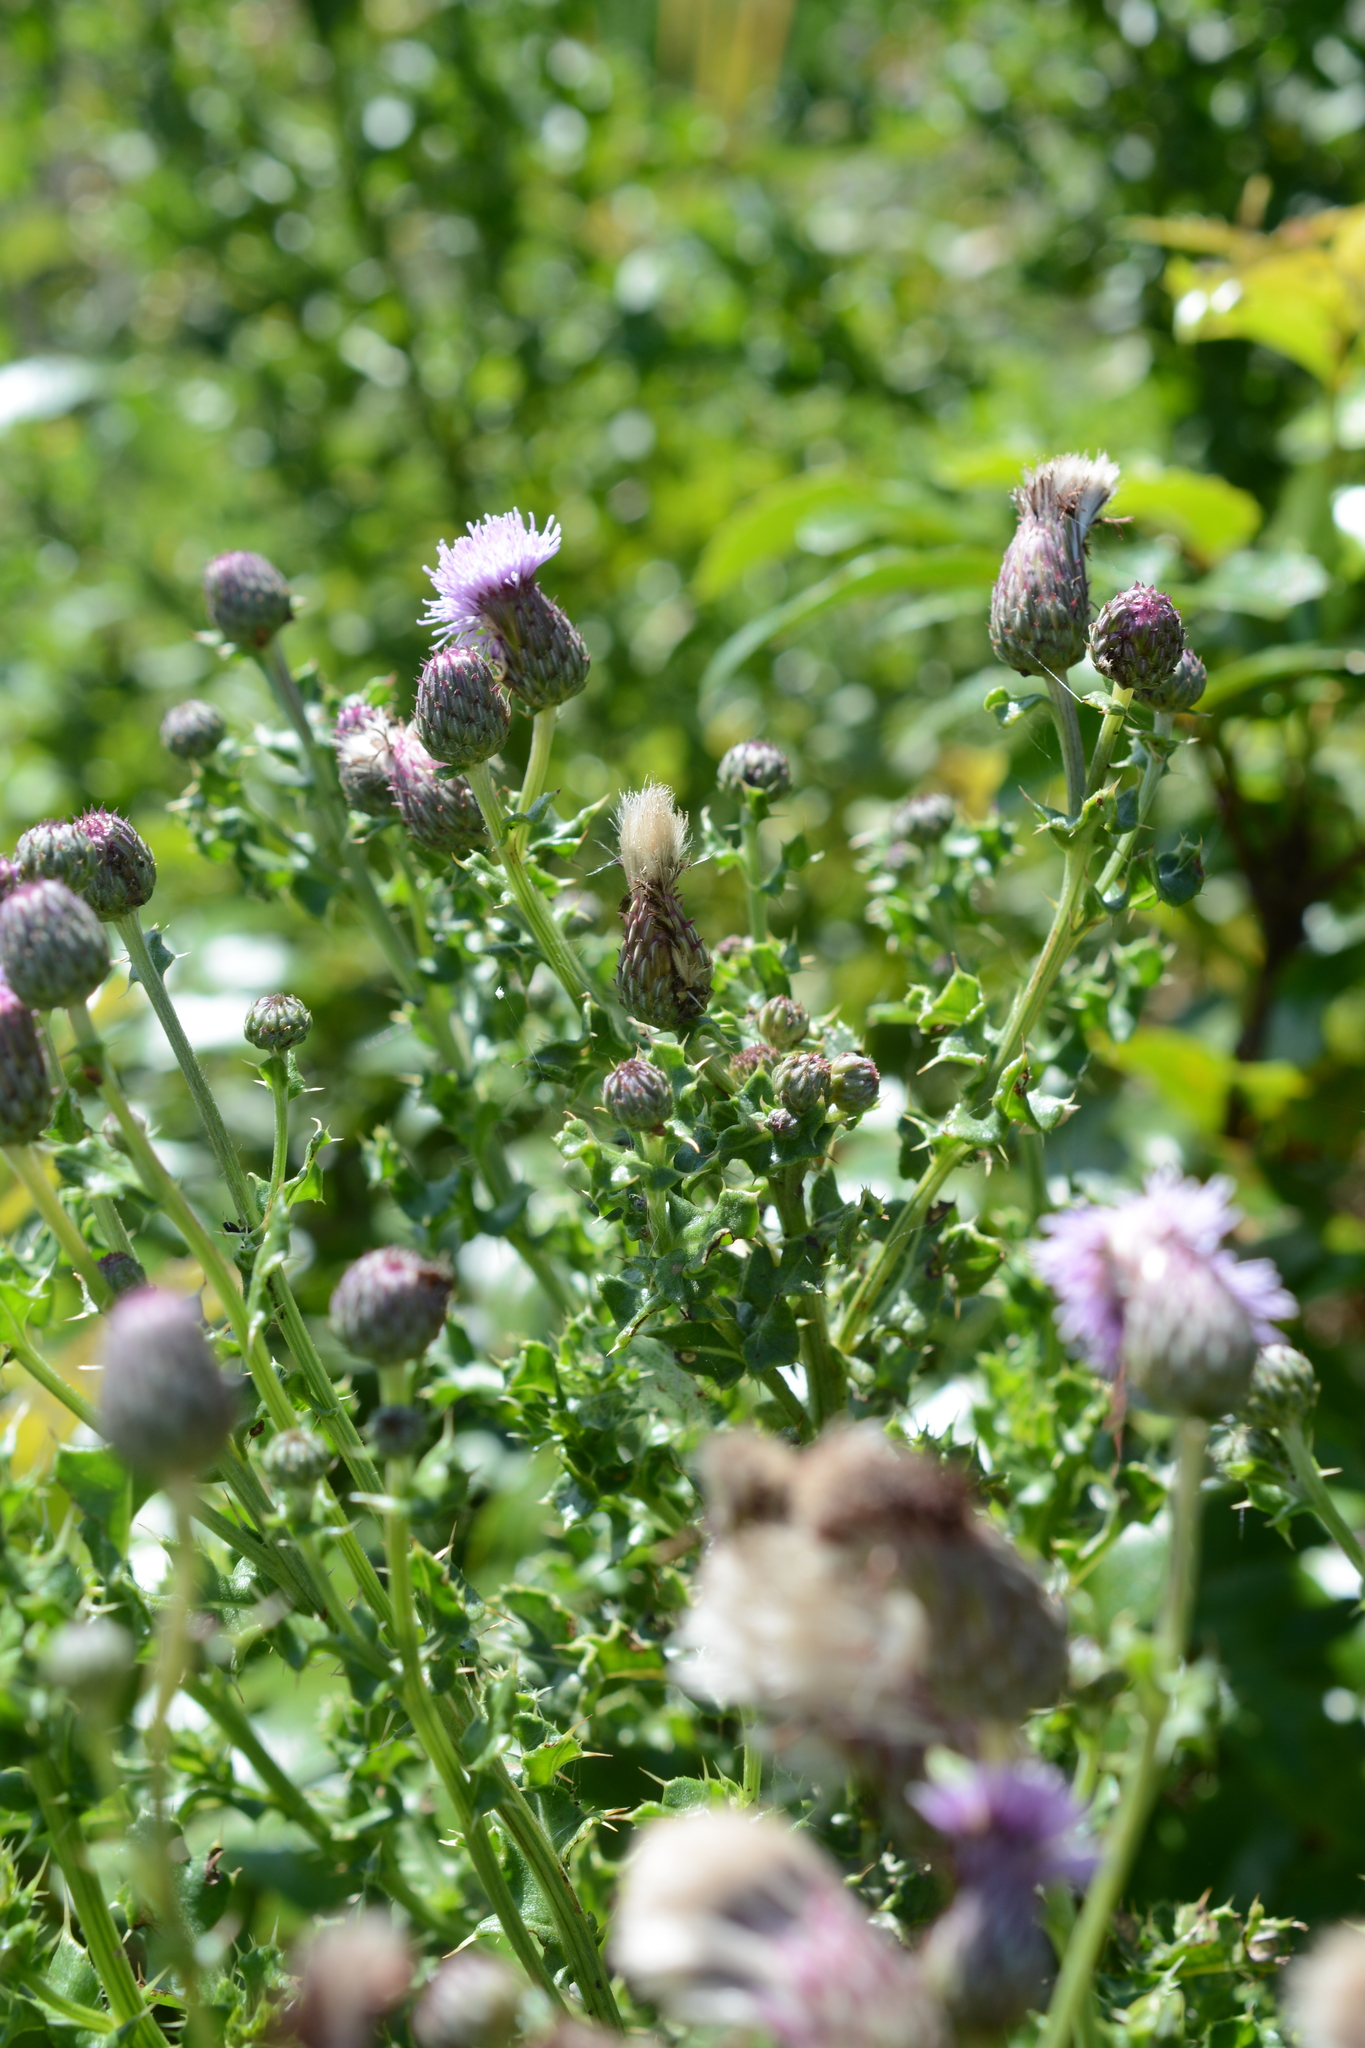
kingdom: Plantae
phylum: Tracheophyta
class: Magnoliopsida
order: Asterales
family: Asteraceae
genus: Cirsium
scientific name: Cirsium arvense
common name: Creeping thistle
